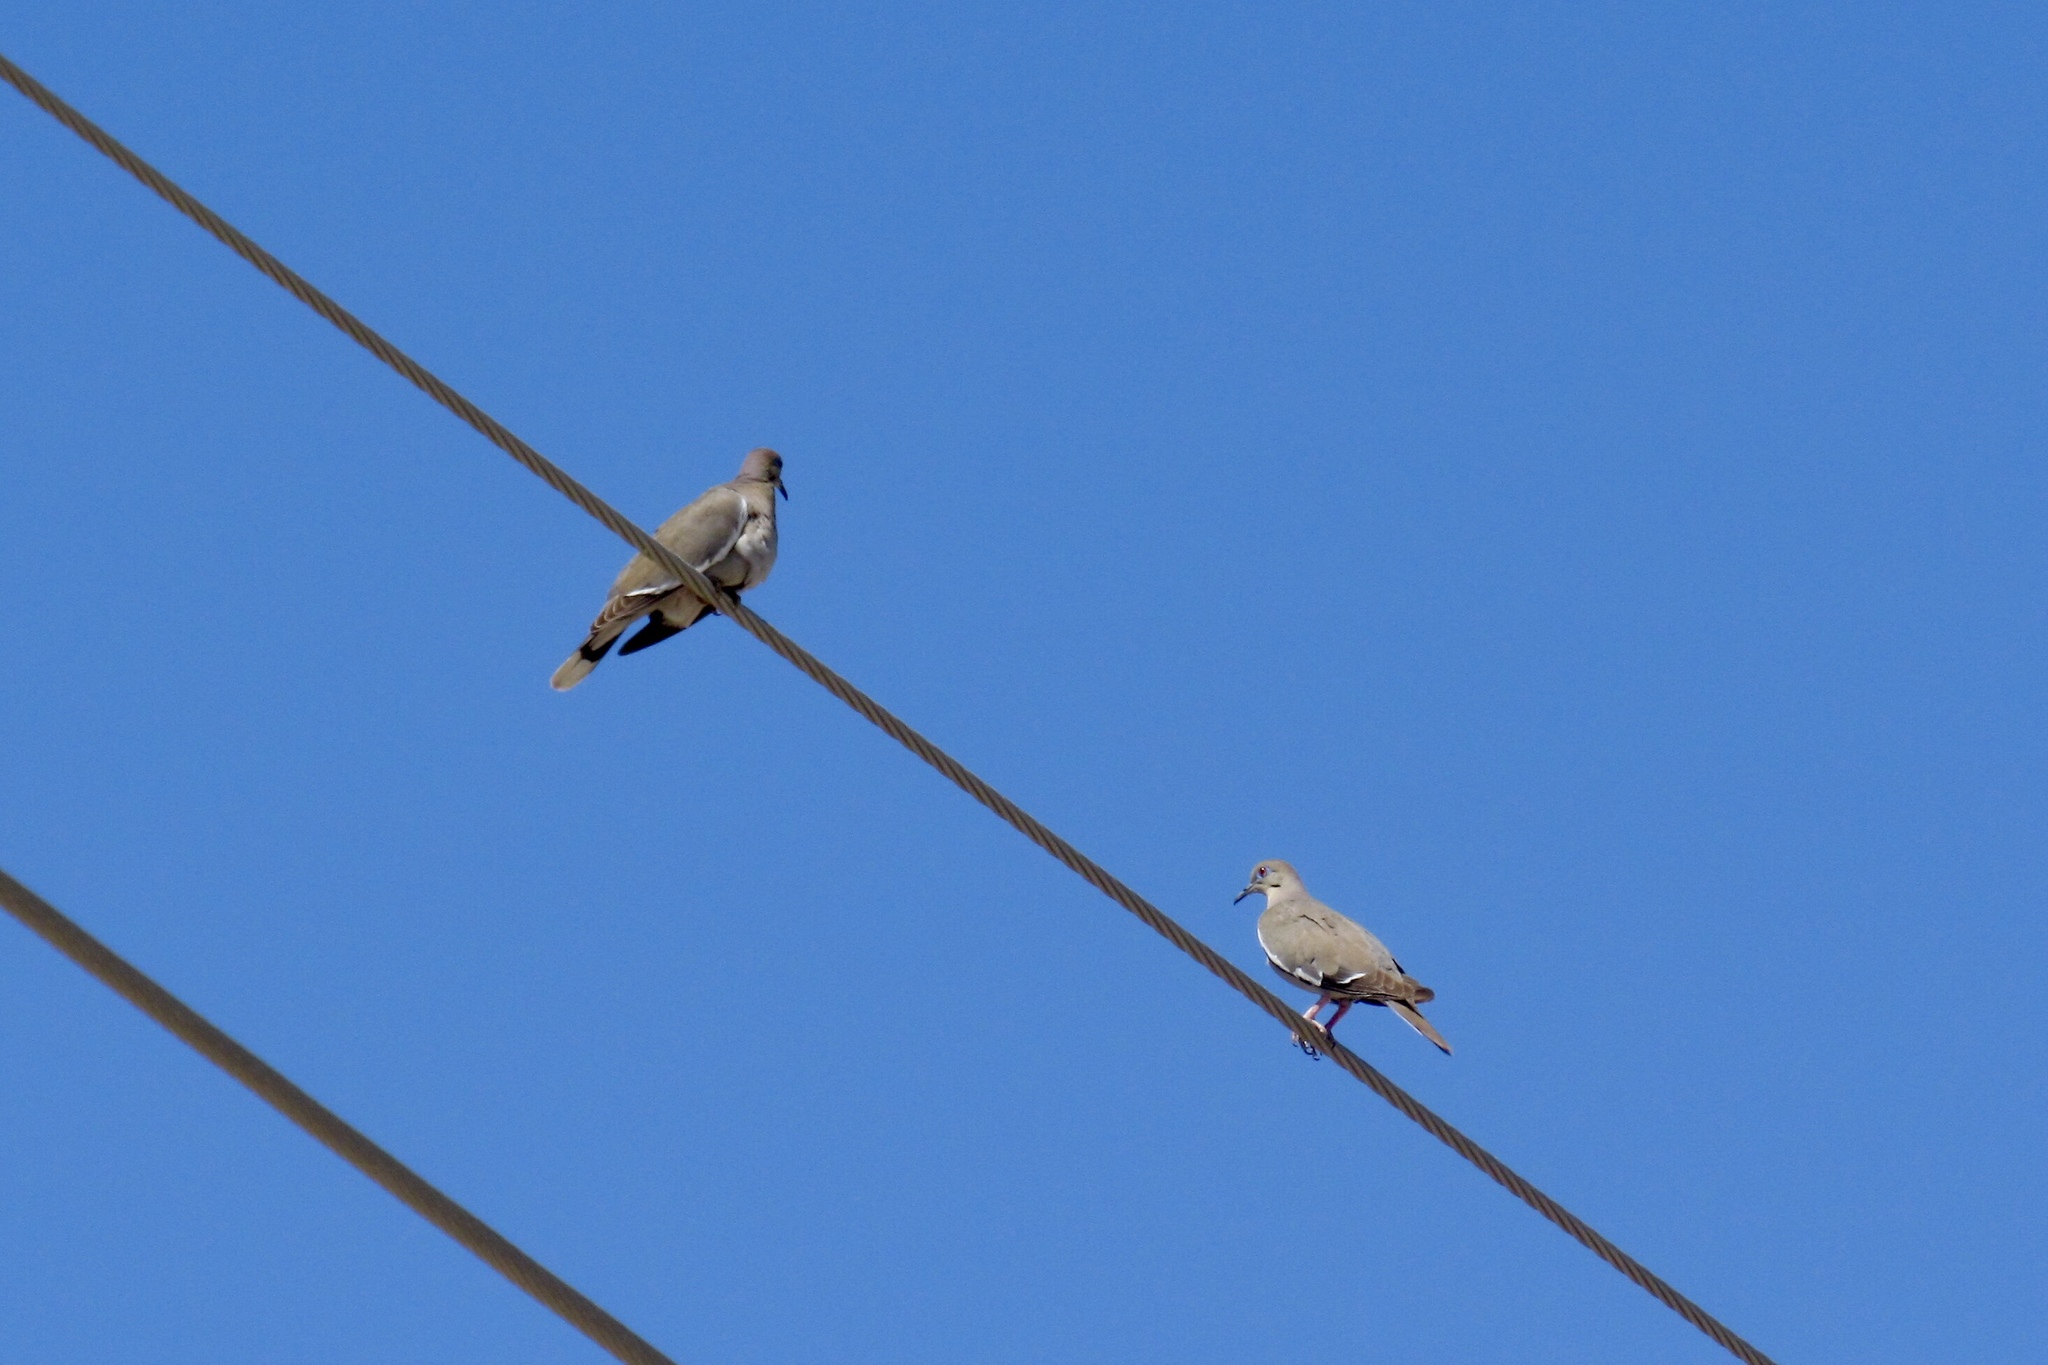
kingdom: Animalia
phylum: Chordata
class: Aves
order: Columbiformes
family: Columbidae
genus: Zenaida
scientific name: Zenaida asiatica
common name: White-winged dove
